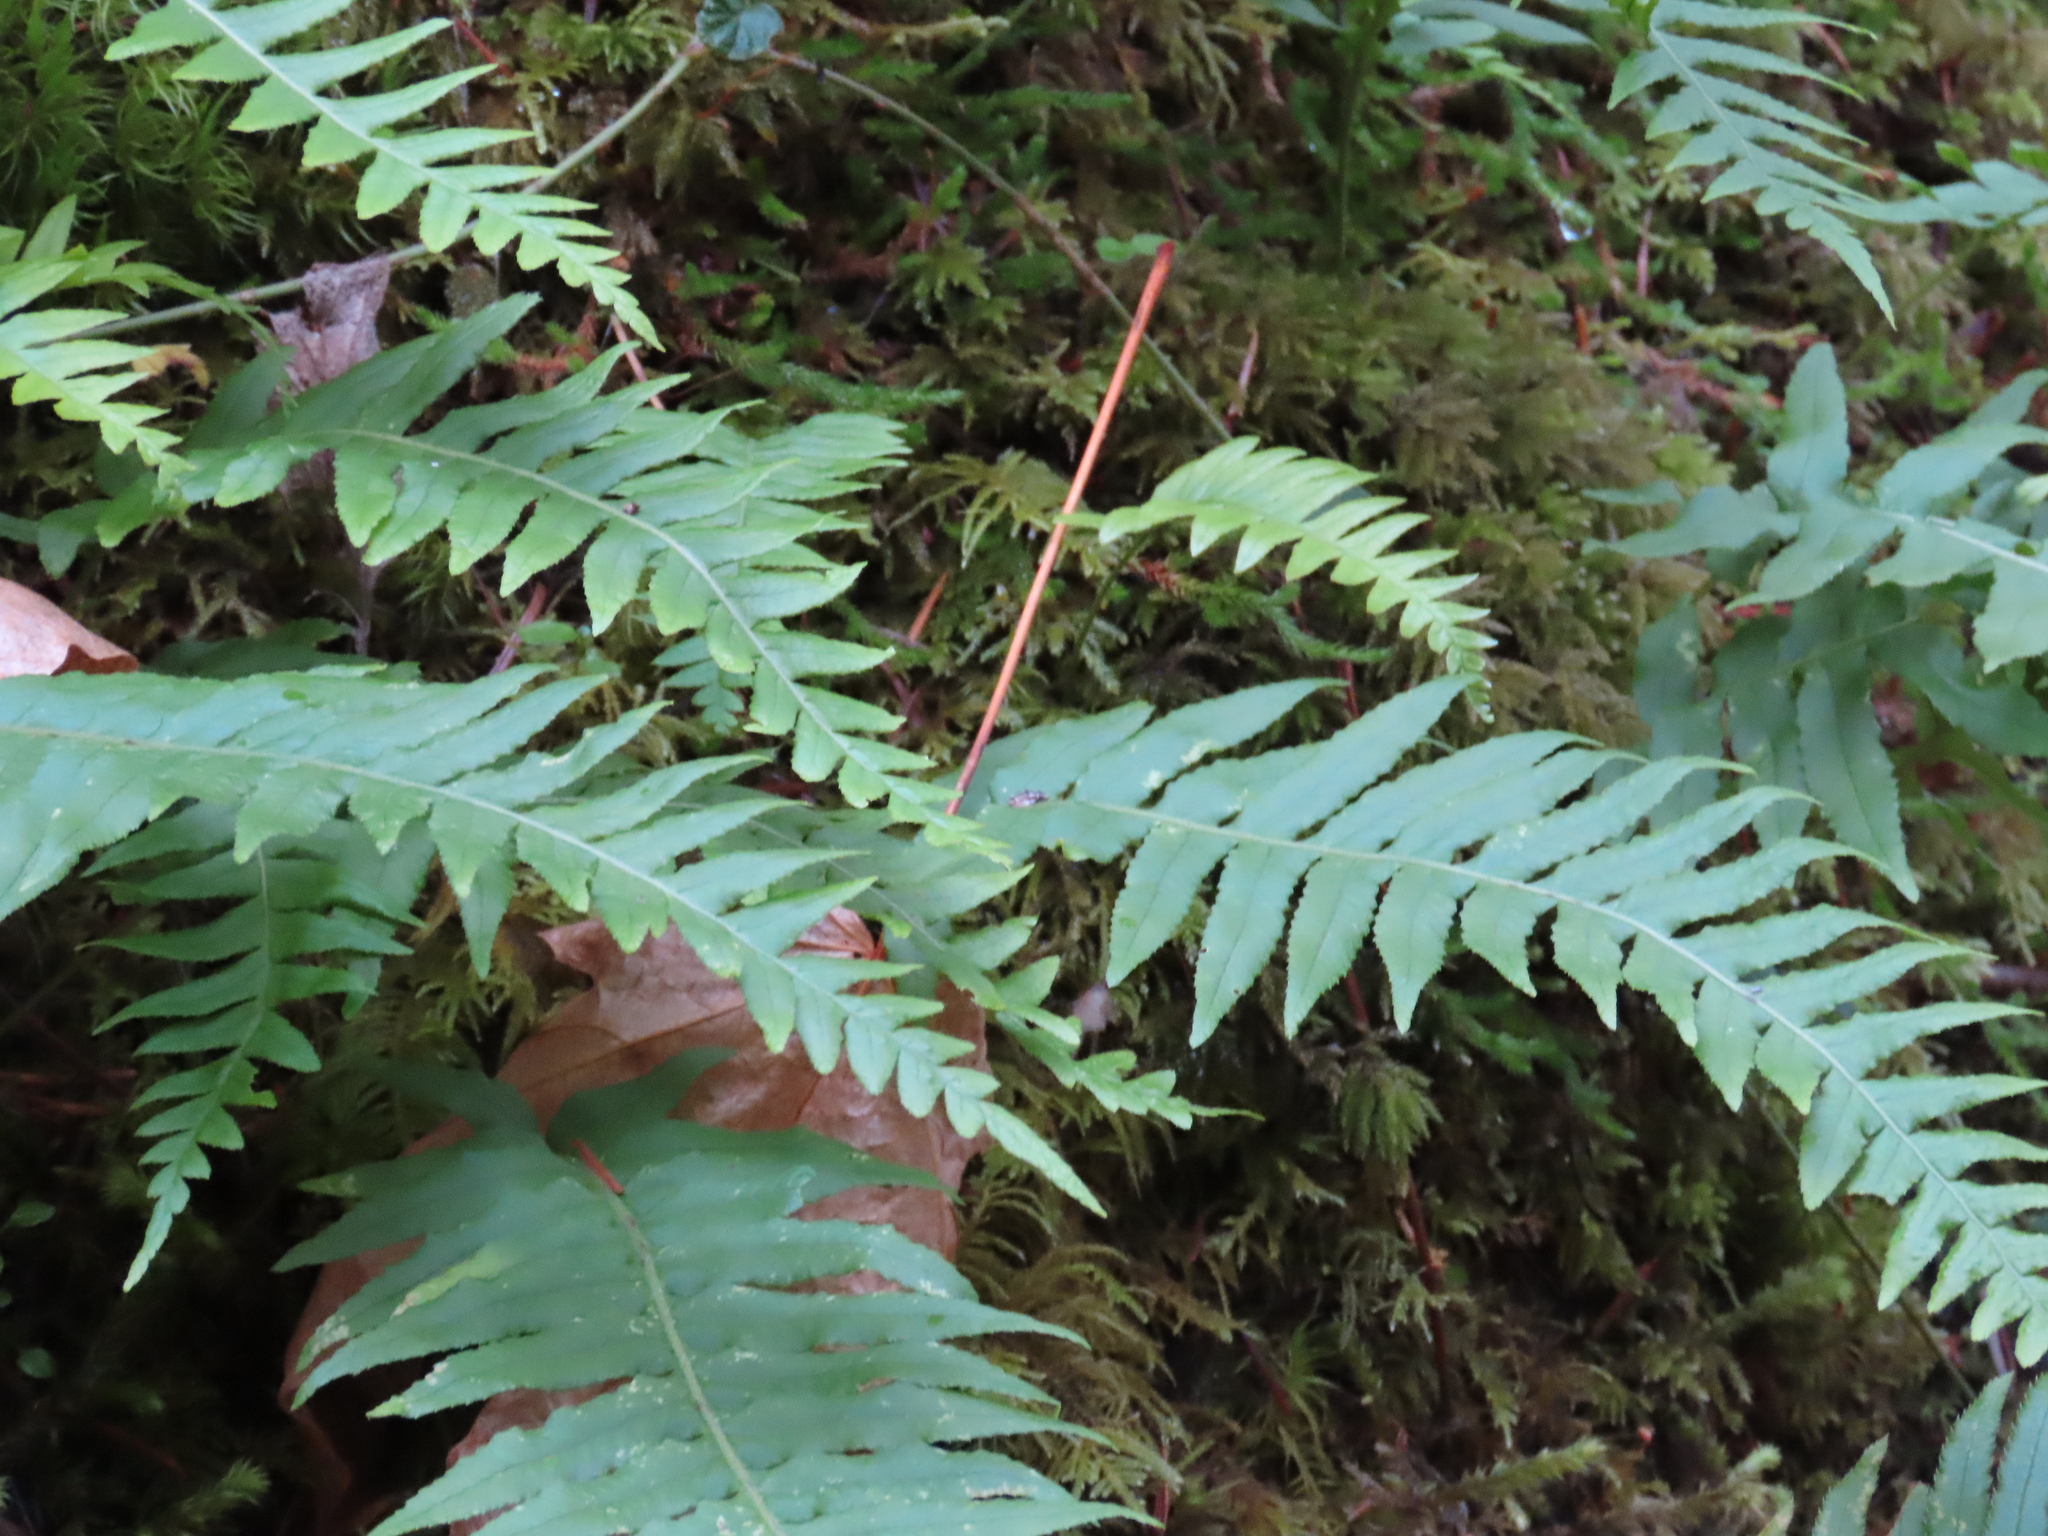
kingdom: Plantae
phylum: Tracheophyta
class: Polypodiopsida
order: Polypodiales
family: Polypodiaceae
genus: Polypodium
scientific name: Polypodium glycyrrhiza
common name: Licorice fern
